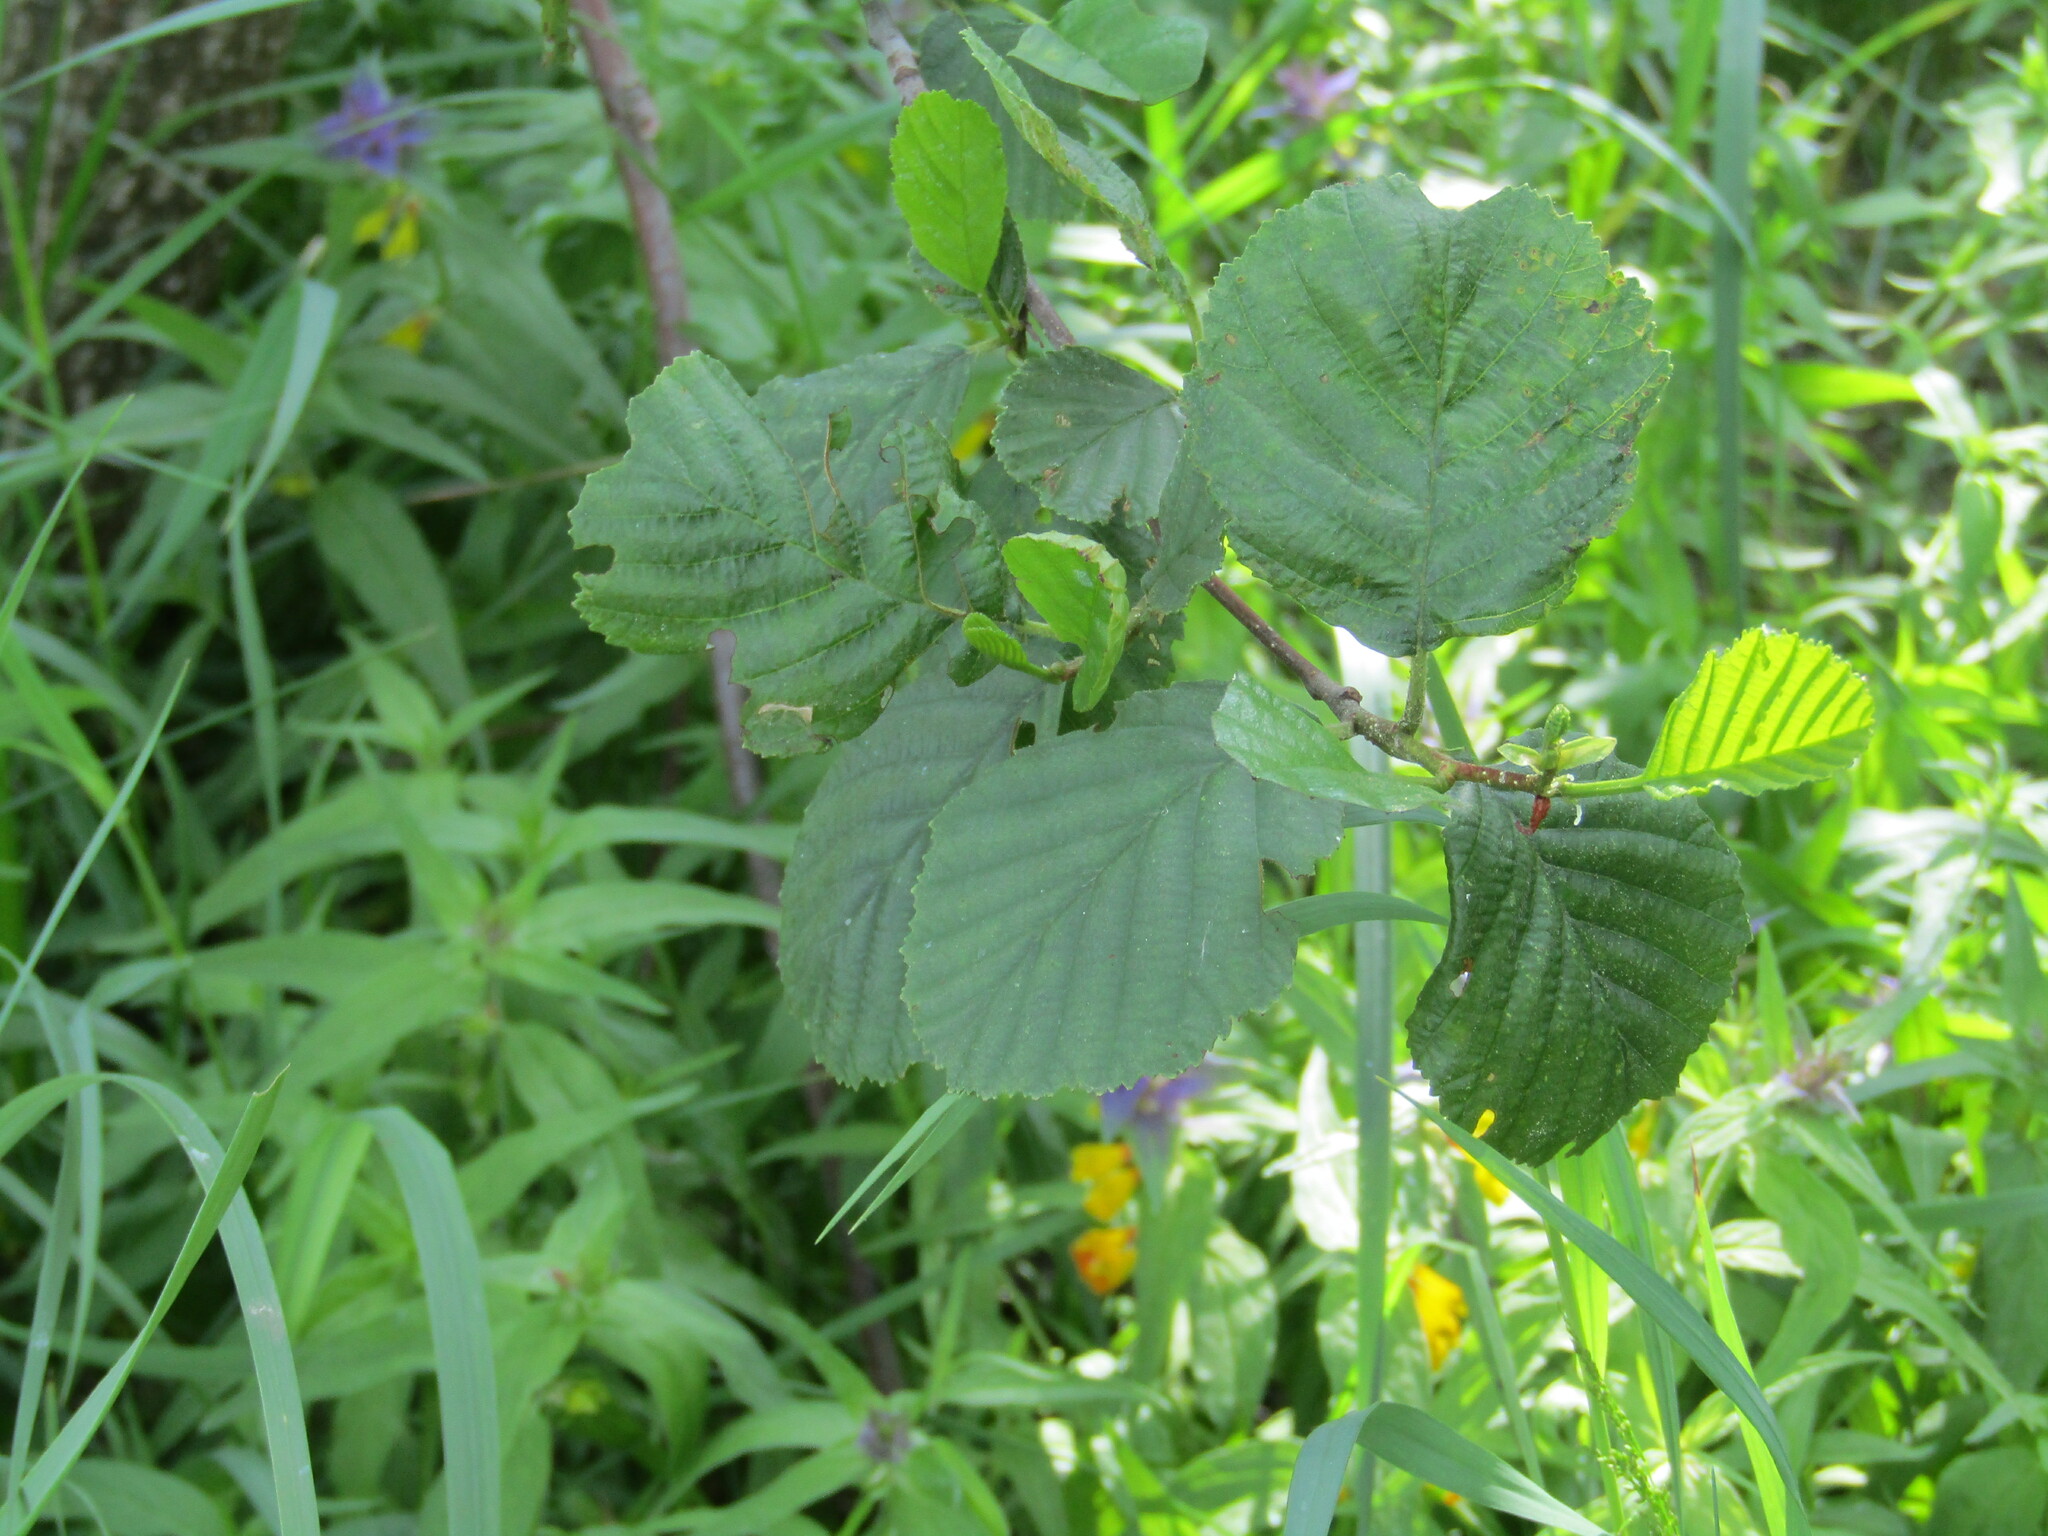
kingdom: Plantae
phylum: Tracheophyta
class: Magnoliopsida
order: Fagales
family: Betulaceae
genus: Alnus
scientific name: Alnus glutinosa
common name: Black alder
